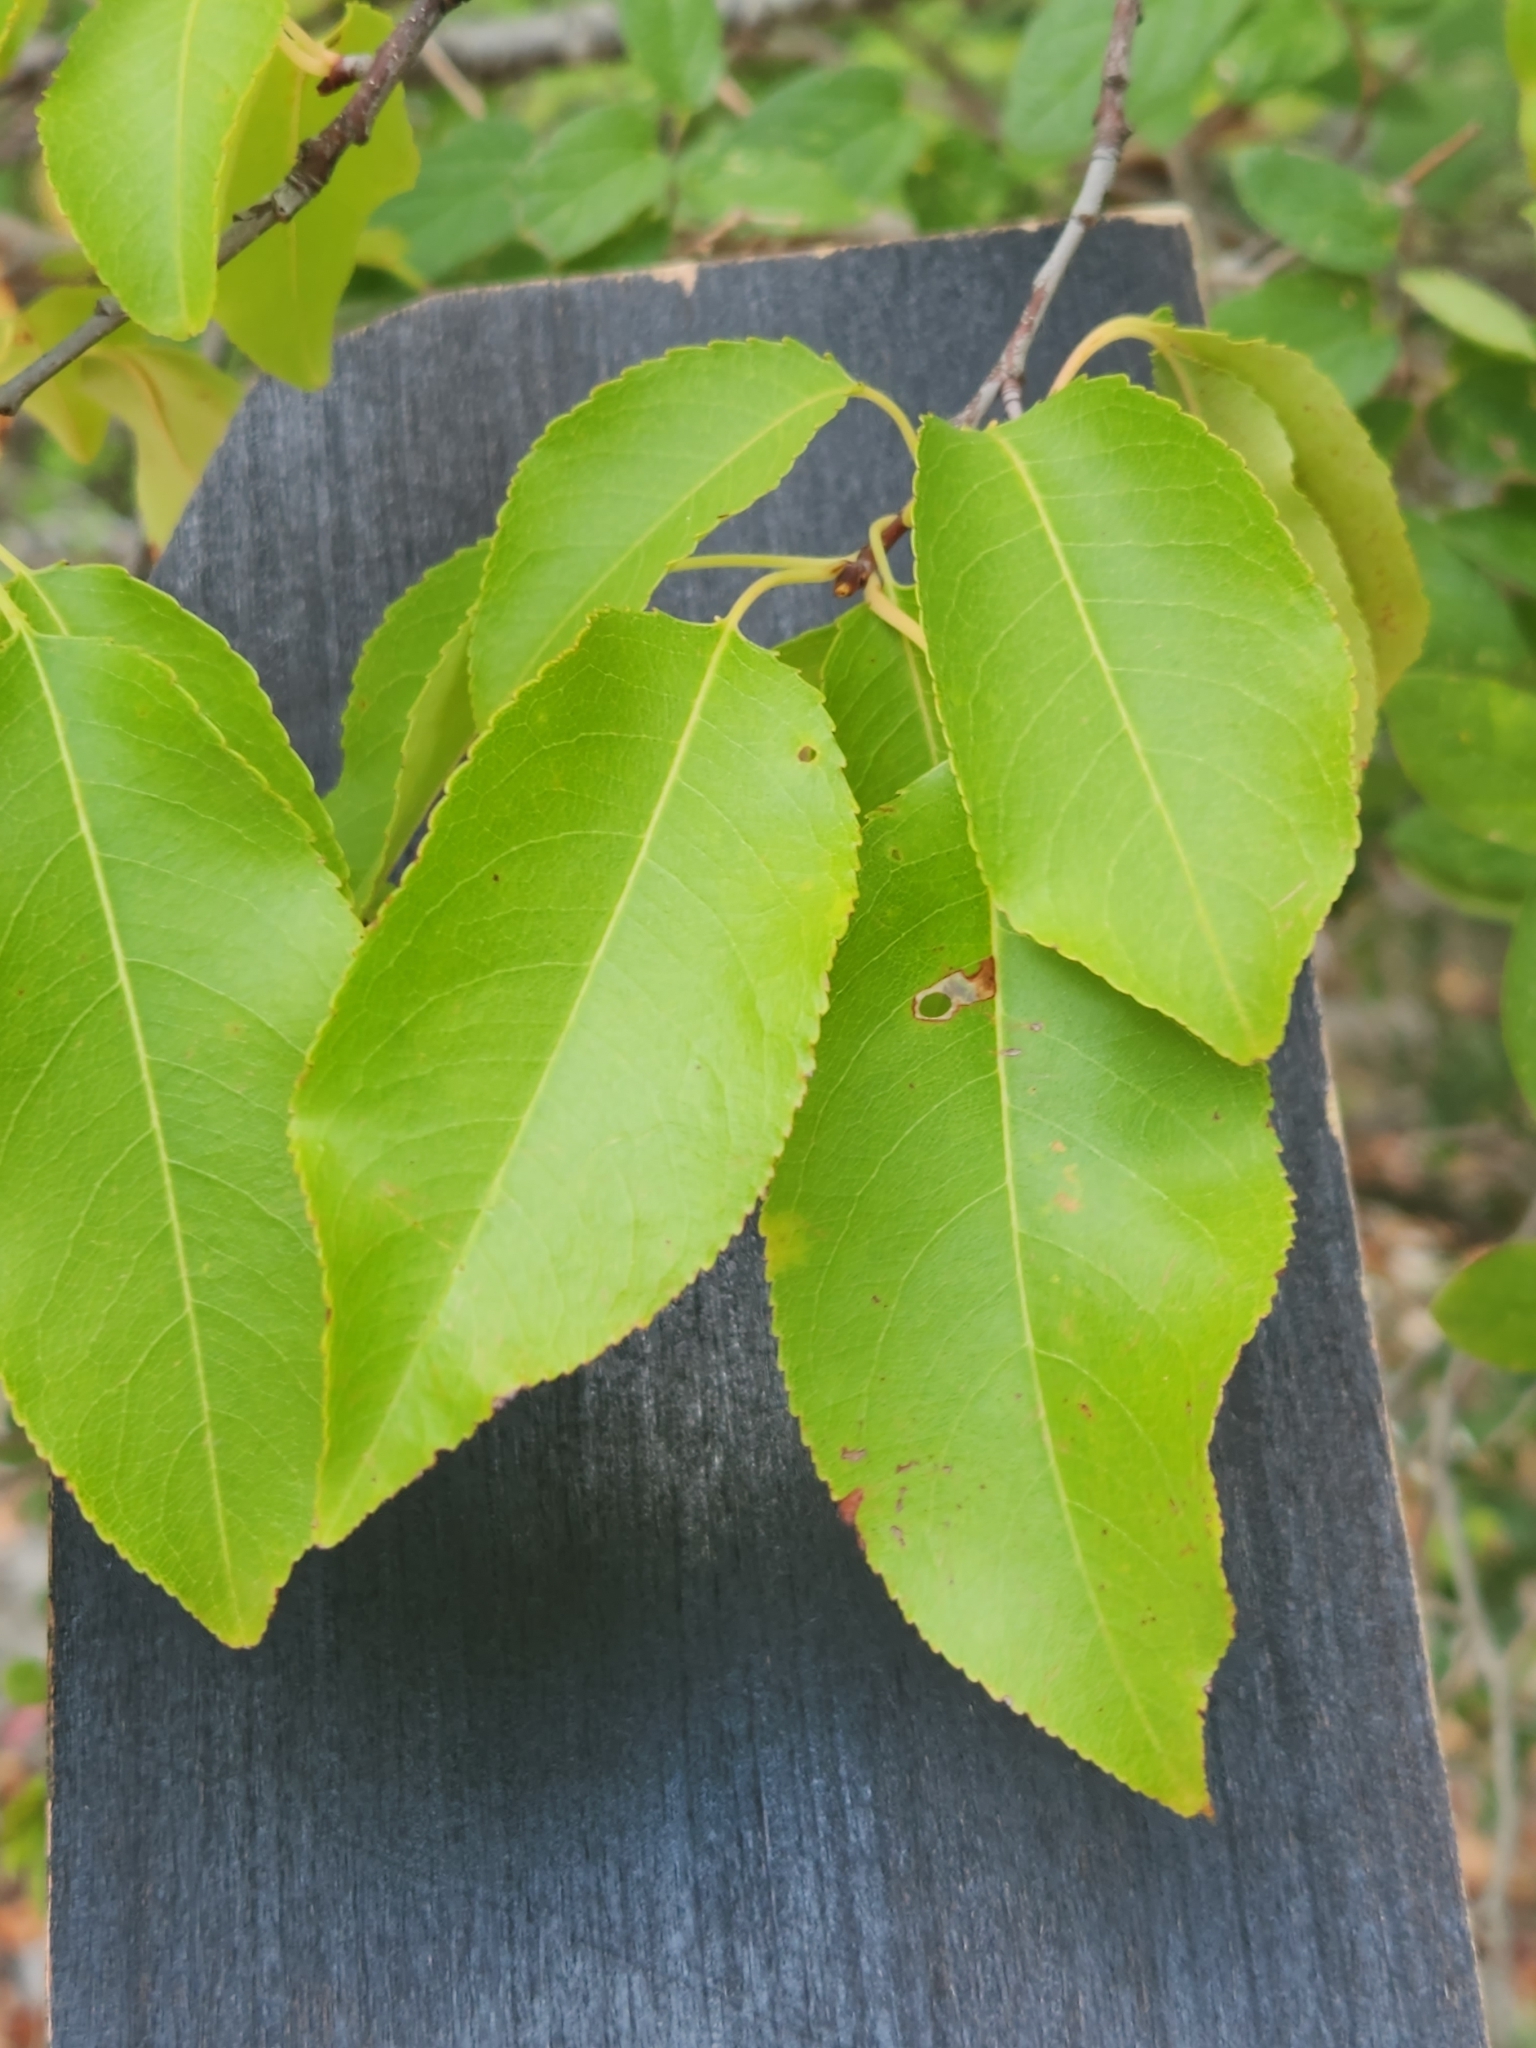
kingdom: Plantae
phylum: Tracheophyta
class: Magnoliopsida
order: Rosales
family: Rosaceae
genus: Prunus
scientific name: Prunus serotina
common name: Black cherry
